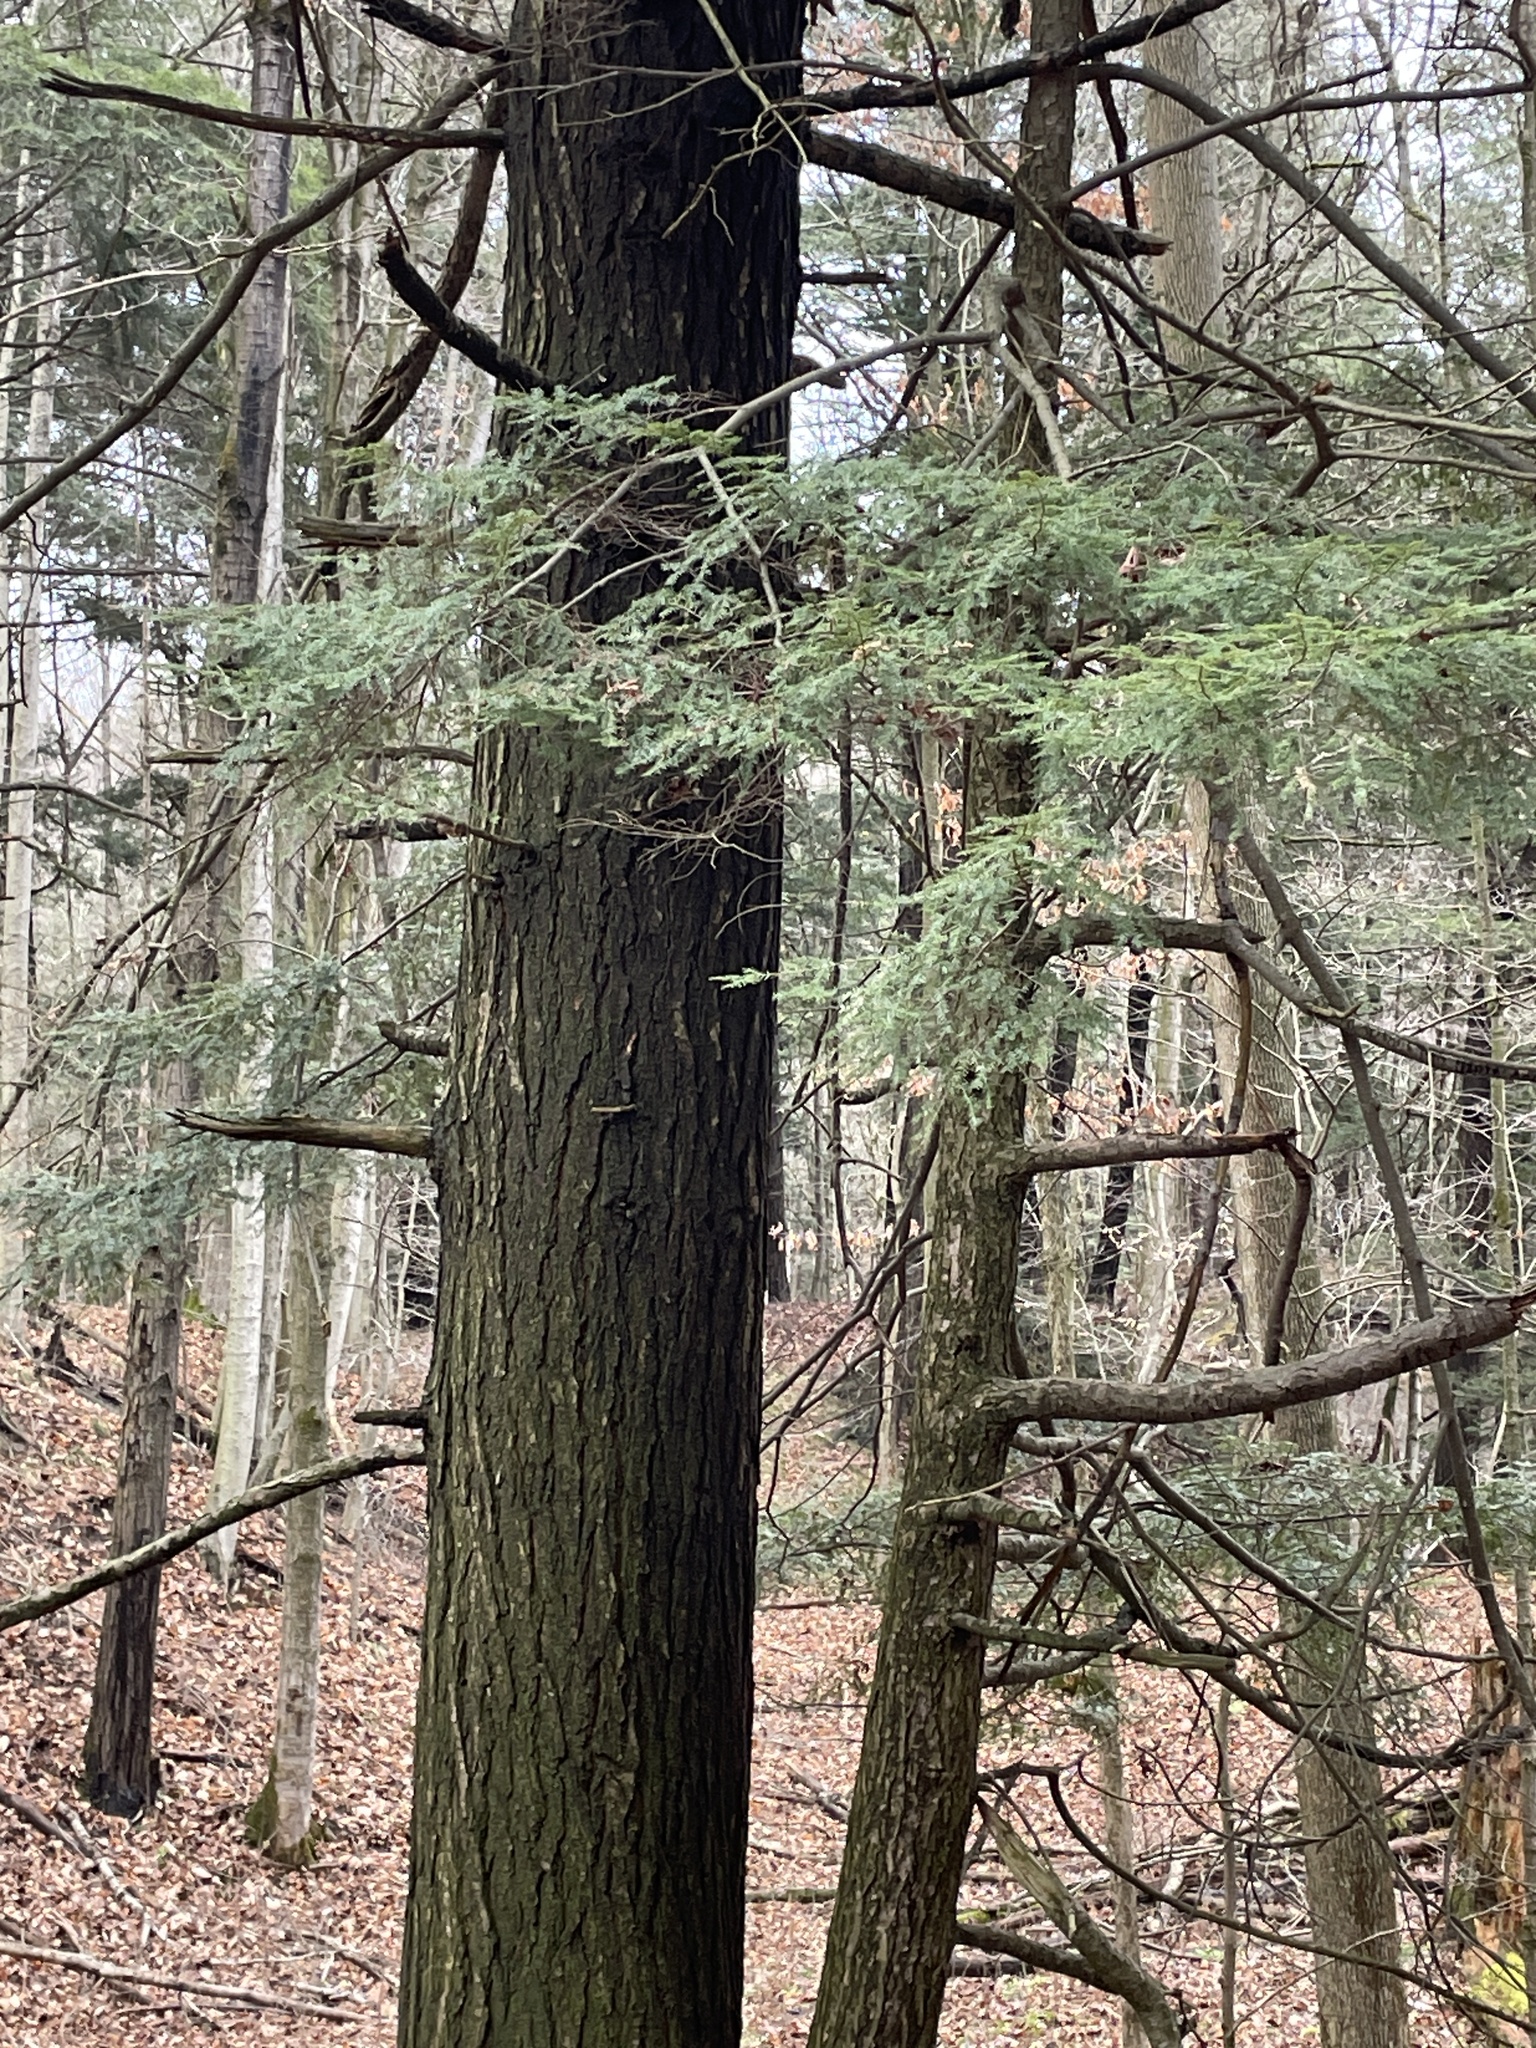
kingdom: Plantae
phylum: Tracheophyta
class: Pinopsida
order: Pinales
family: Pinaceae
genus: Tsuga
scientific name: Tsuga canadensis
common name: Eastern hemlock
